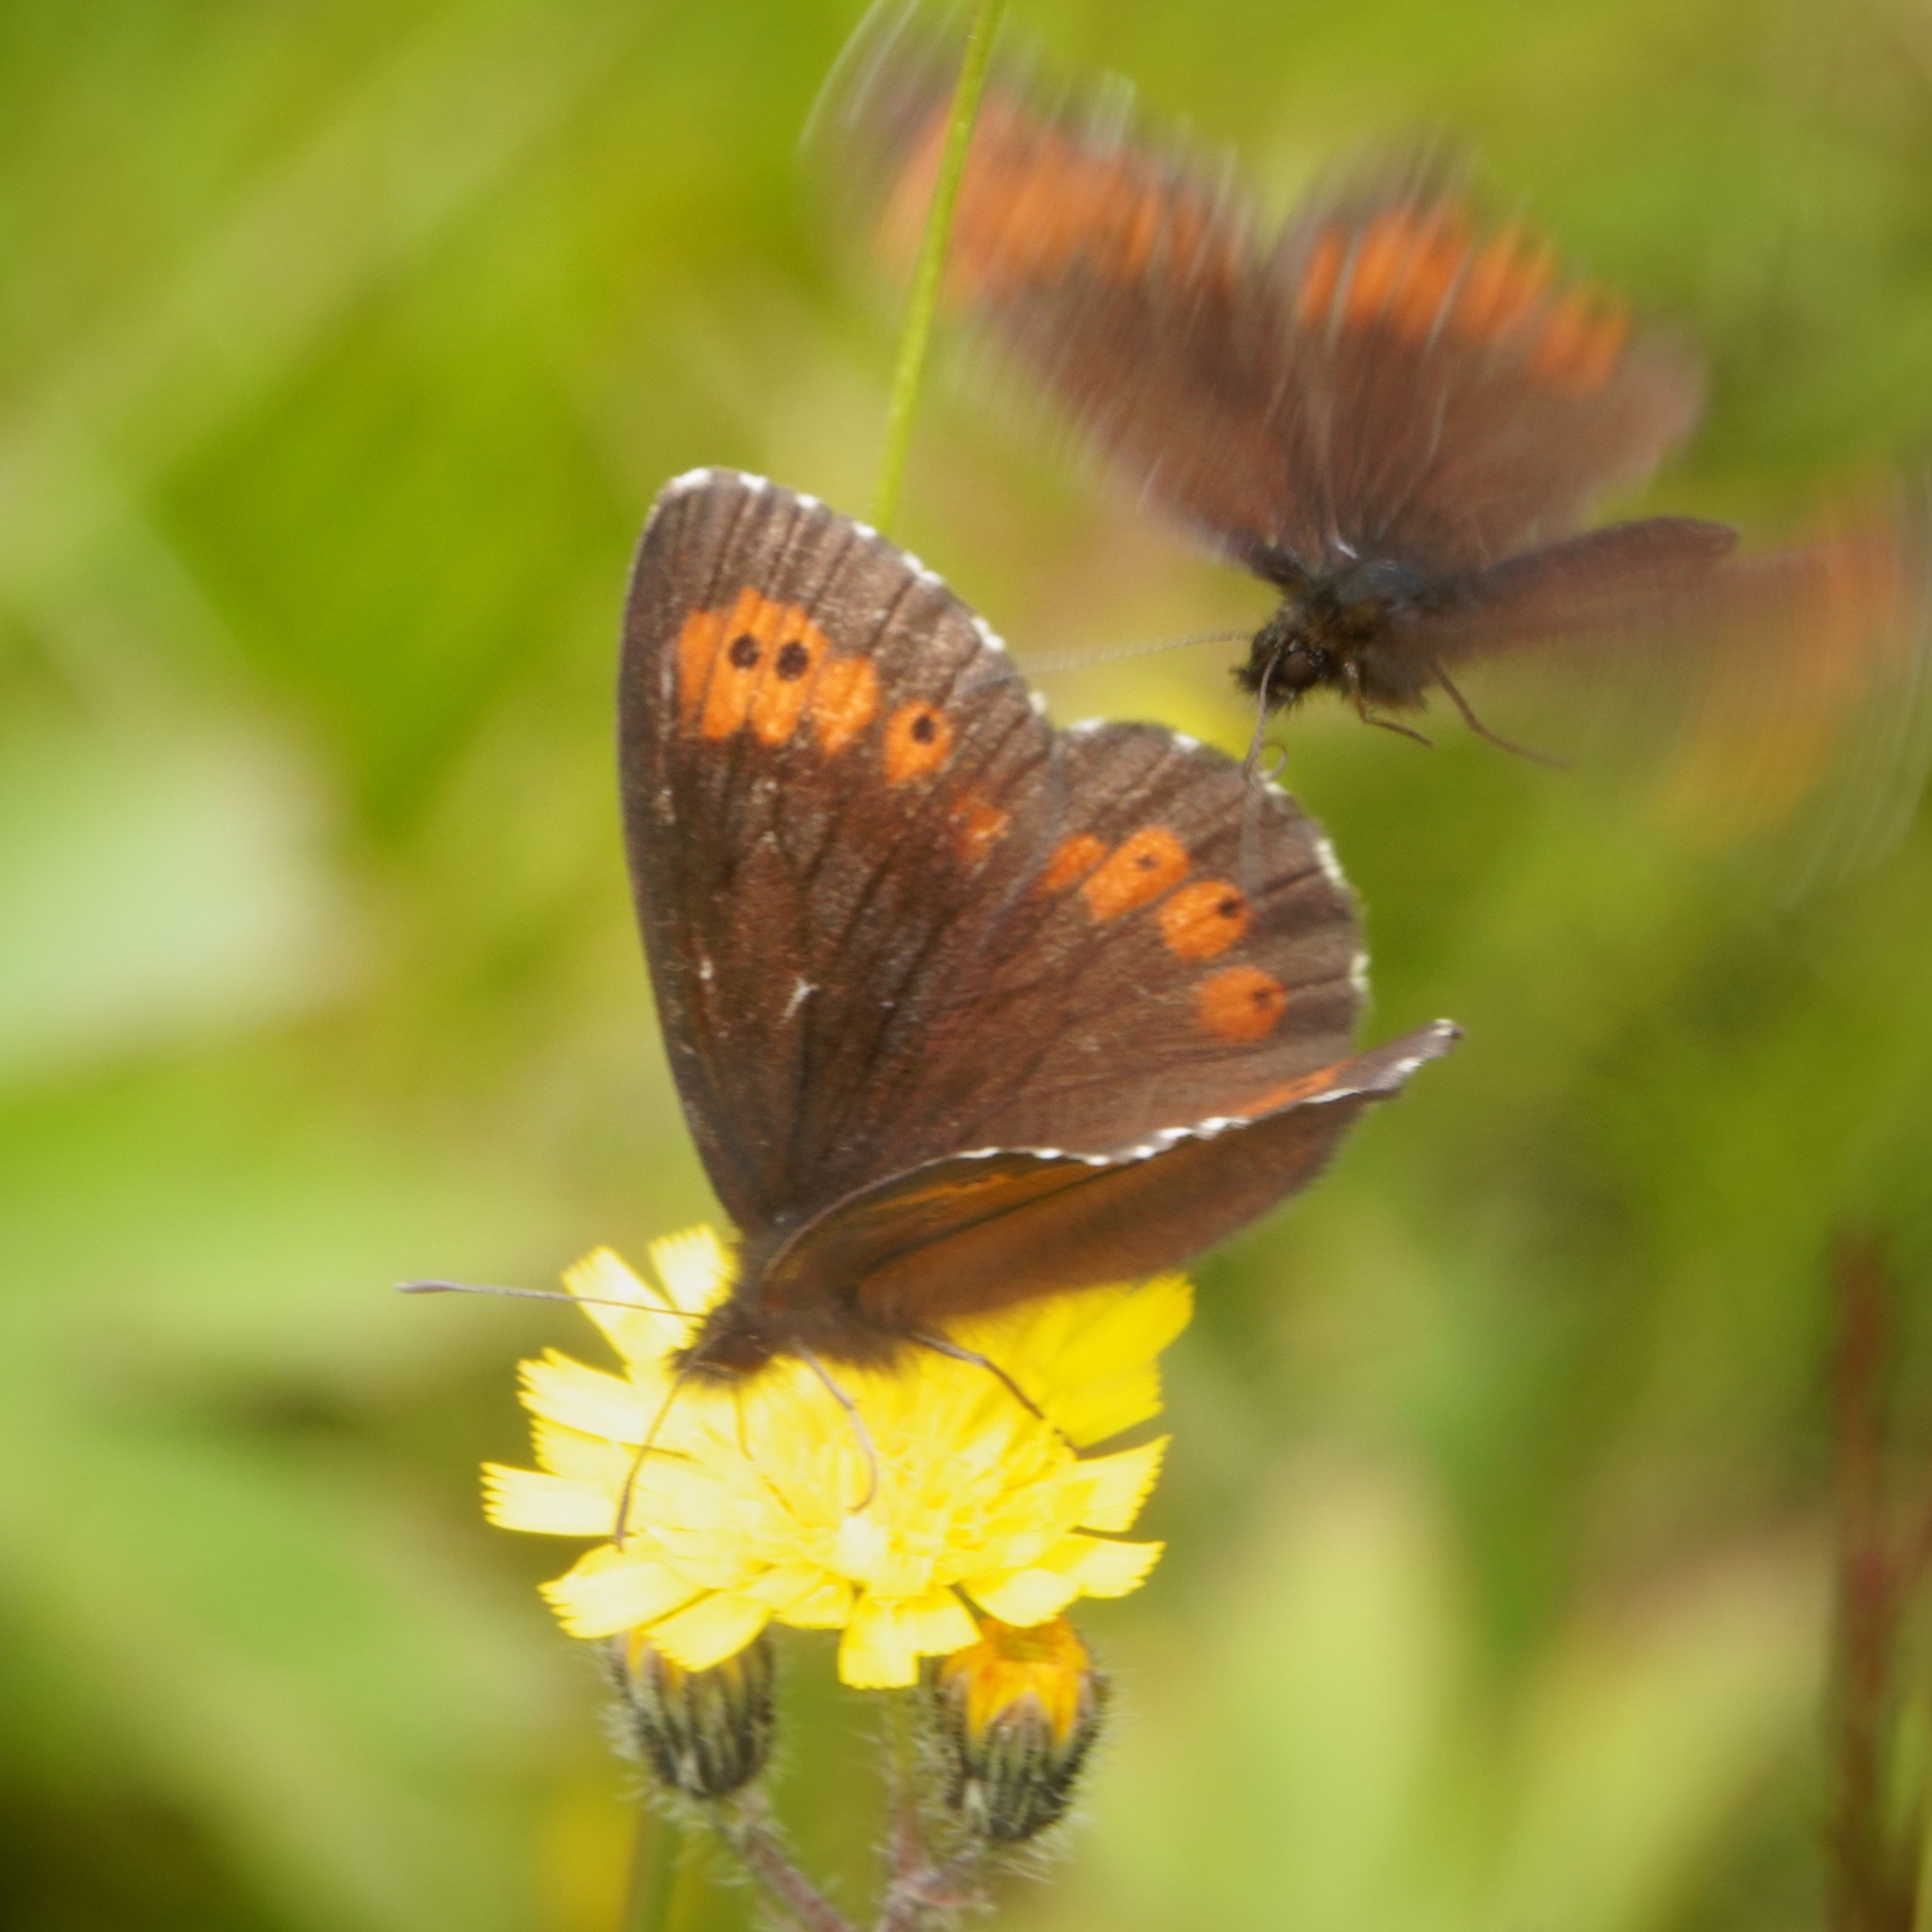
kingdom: Animalia
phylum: Arthropoda
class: Insecta
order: Lepidoptera
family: Nymphalidae
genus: Erebia
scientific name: Erebia ligea
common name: Arran brown
